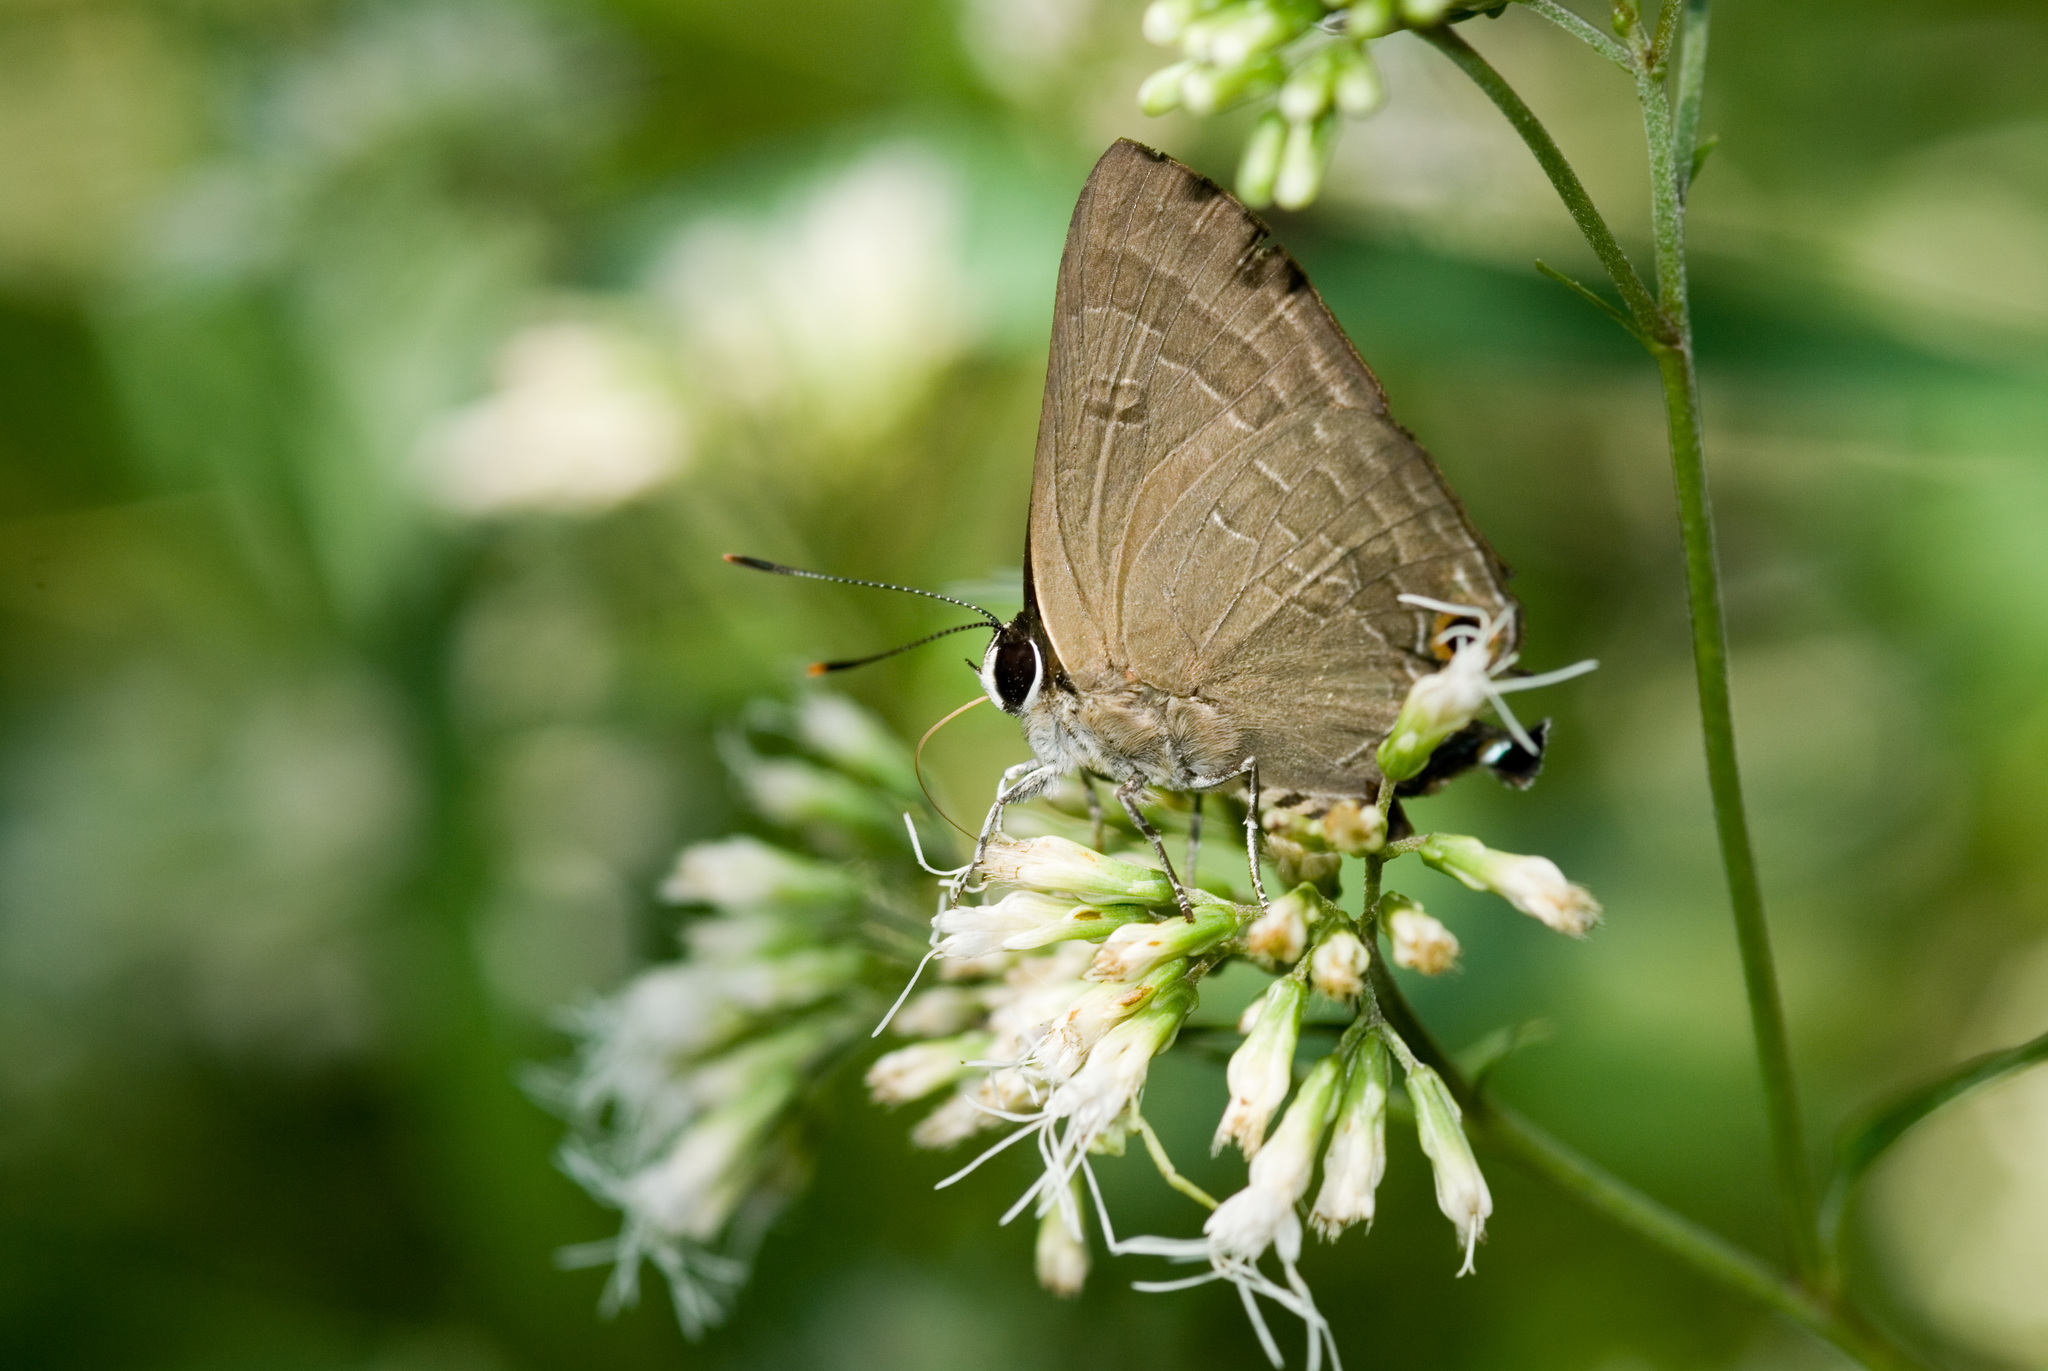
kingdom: Animalia
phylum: Arthropoda
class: Insecta
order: Lepidoptera
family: Lycaenidae
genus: Deudorix
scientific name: Deudorix epijarbas
